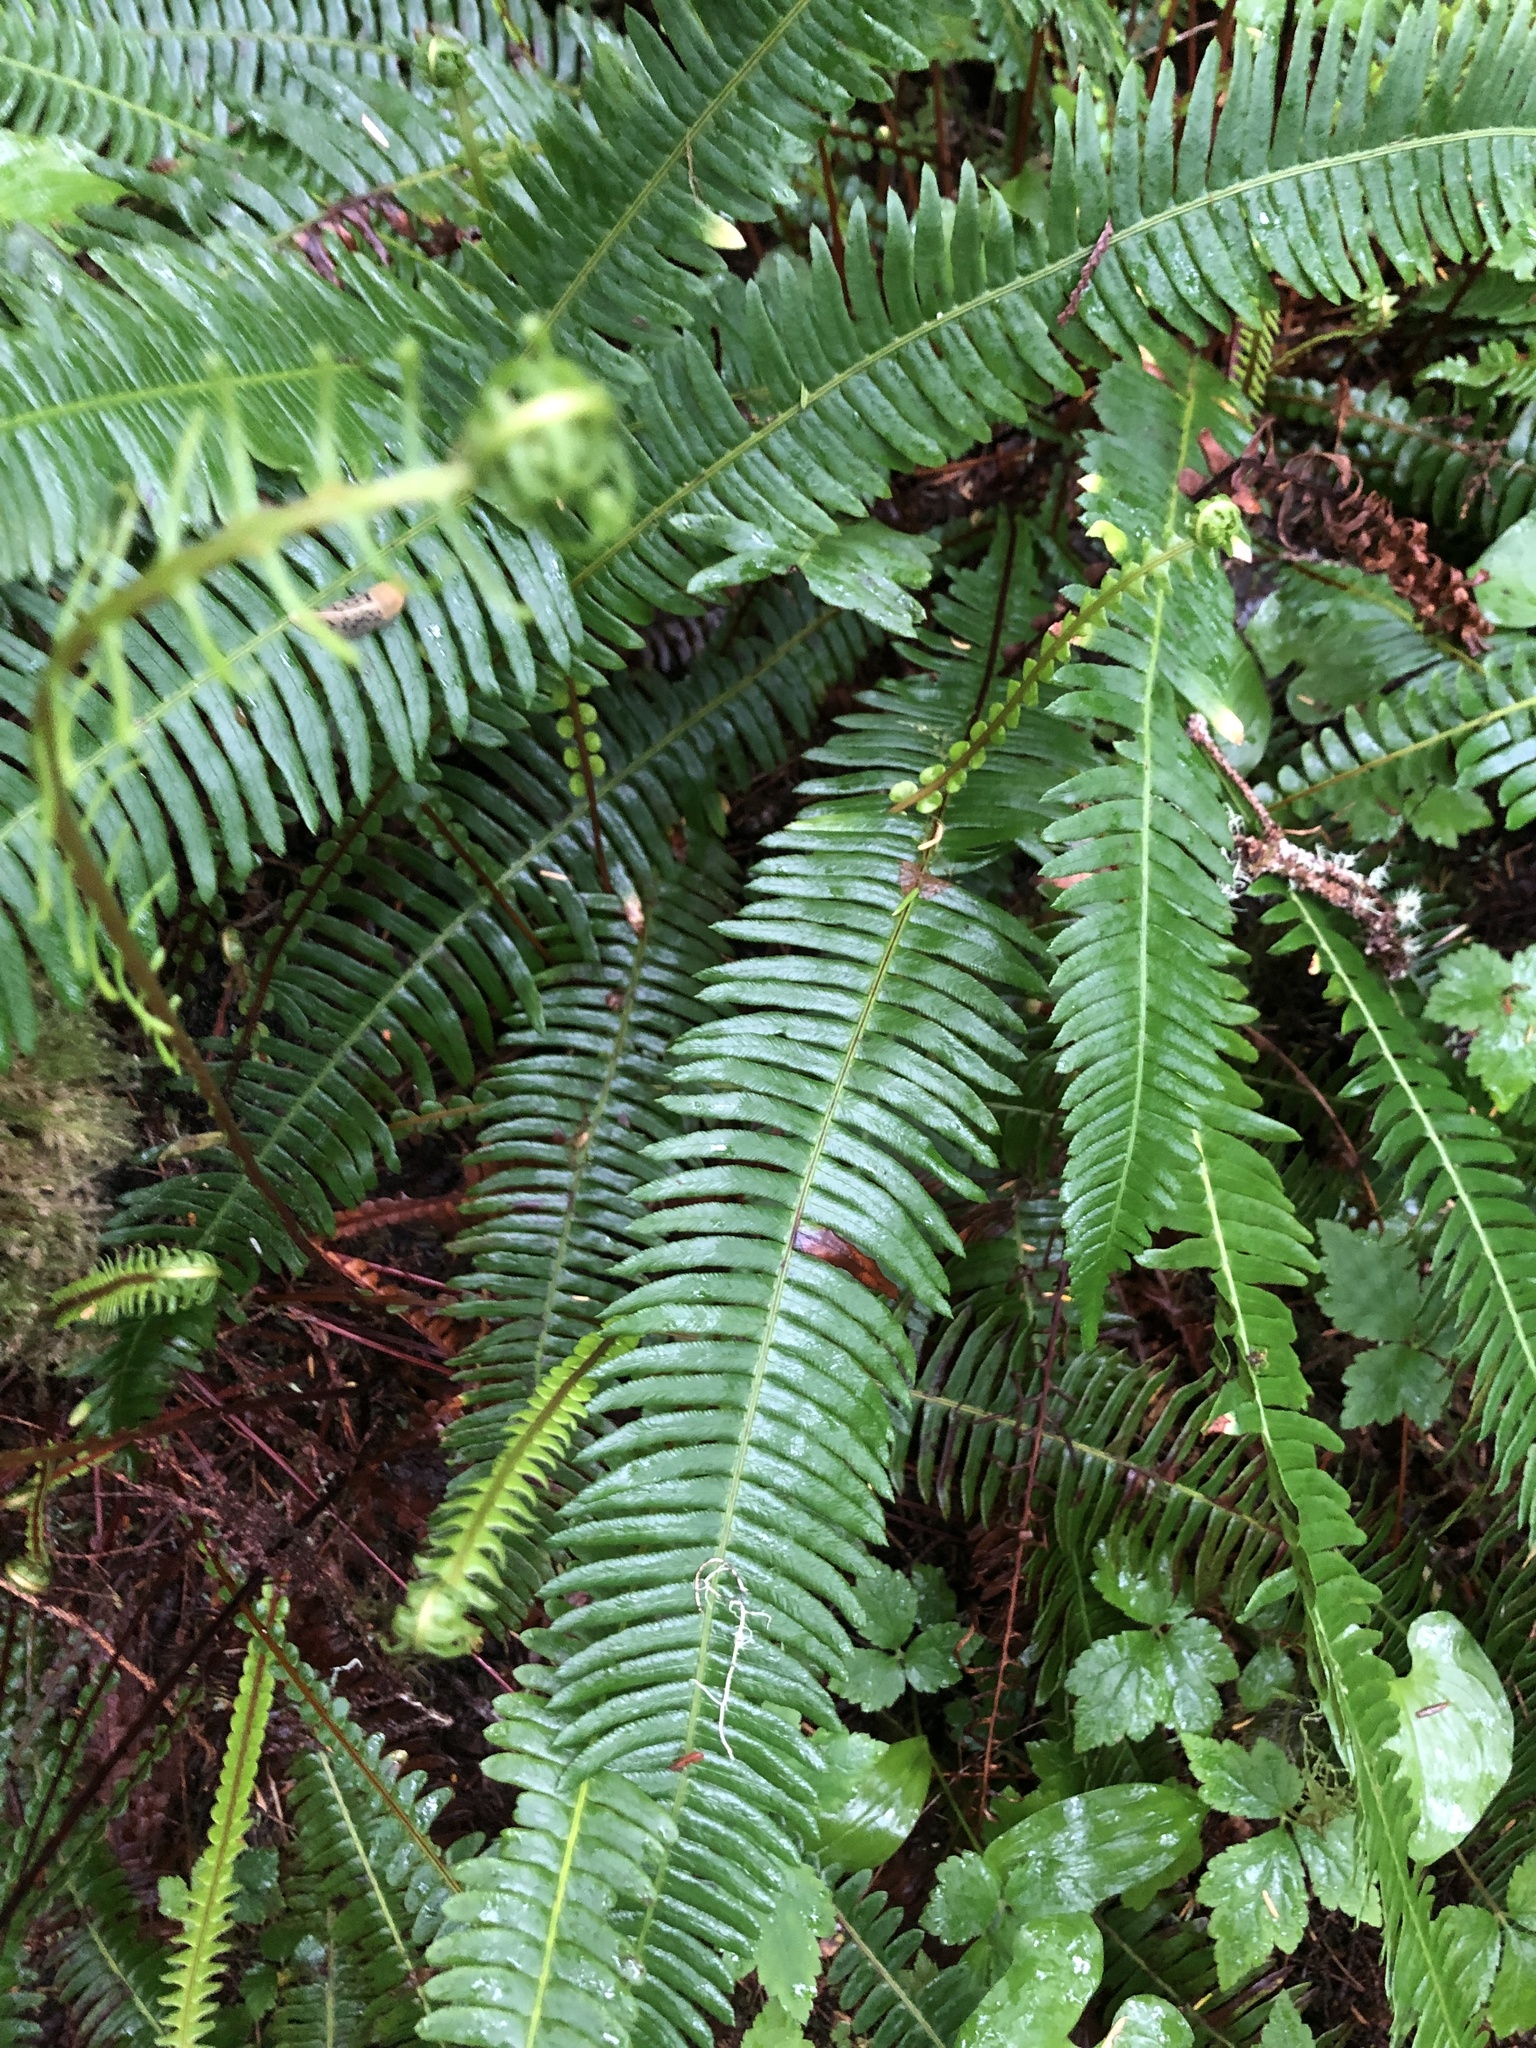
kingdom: Plantae
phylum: Tracheophyta
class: Polypodiopsida
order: Polypodiales
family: Blechnaceae
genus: Struthiopteris
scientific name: Struthiopteris spicant
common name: Deer fern
